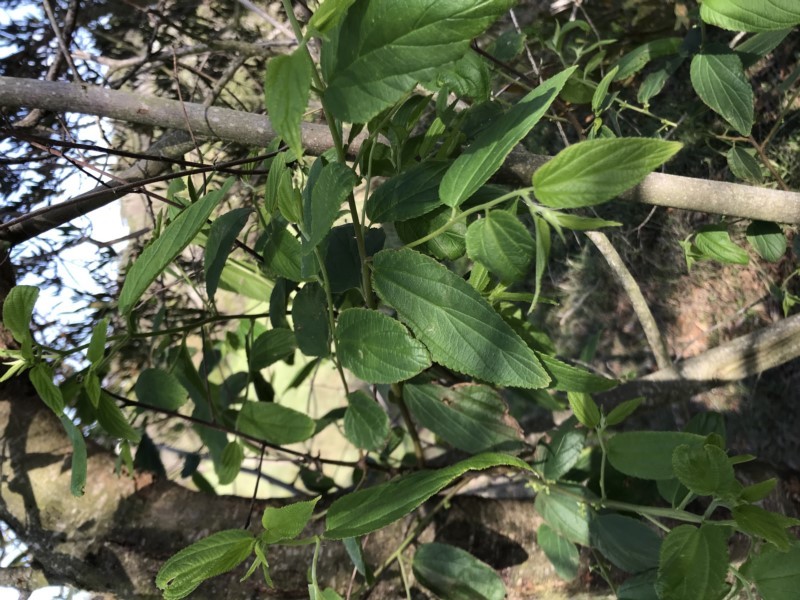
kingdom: Plantae
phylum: Tracheophyta
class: Magnoliopsida
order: Rosales
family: Cannabaceae
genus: Trema
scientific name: Trema tomentosum
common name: Peach-leaf-poisonbush
